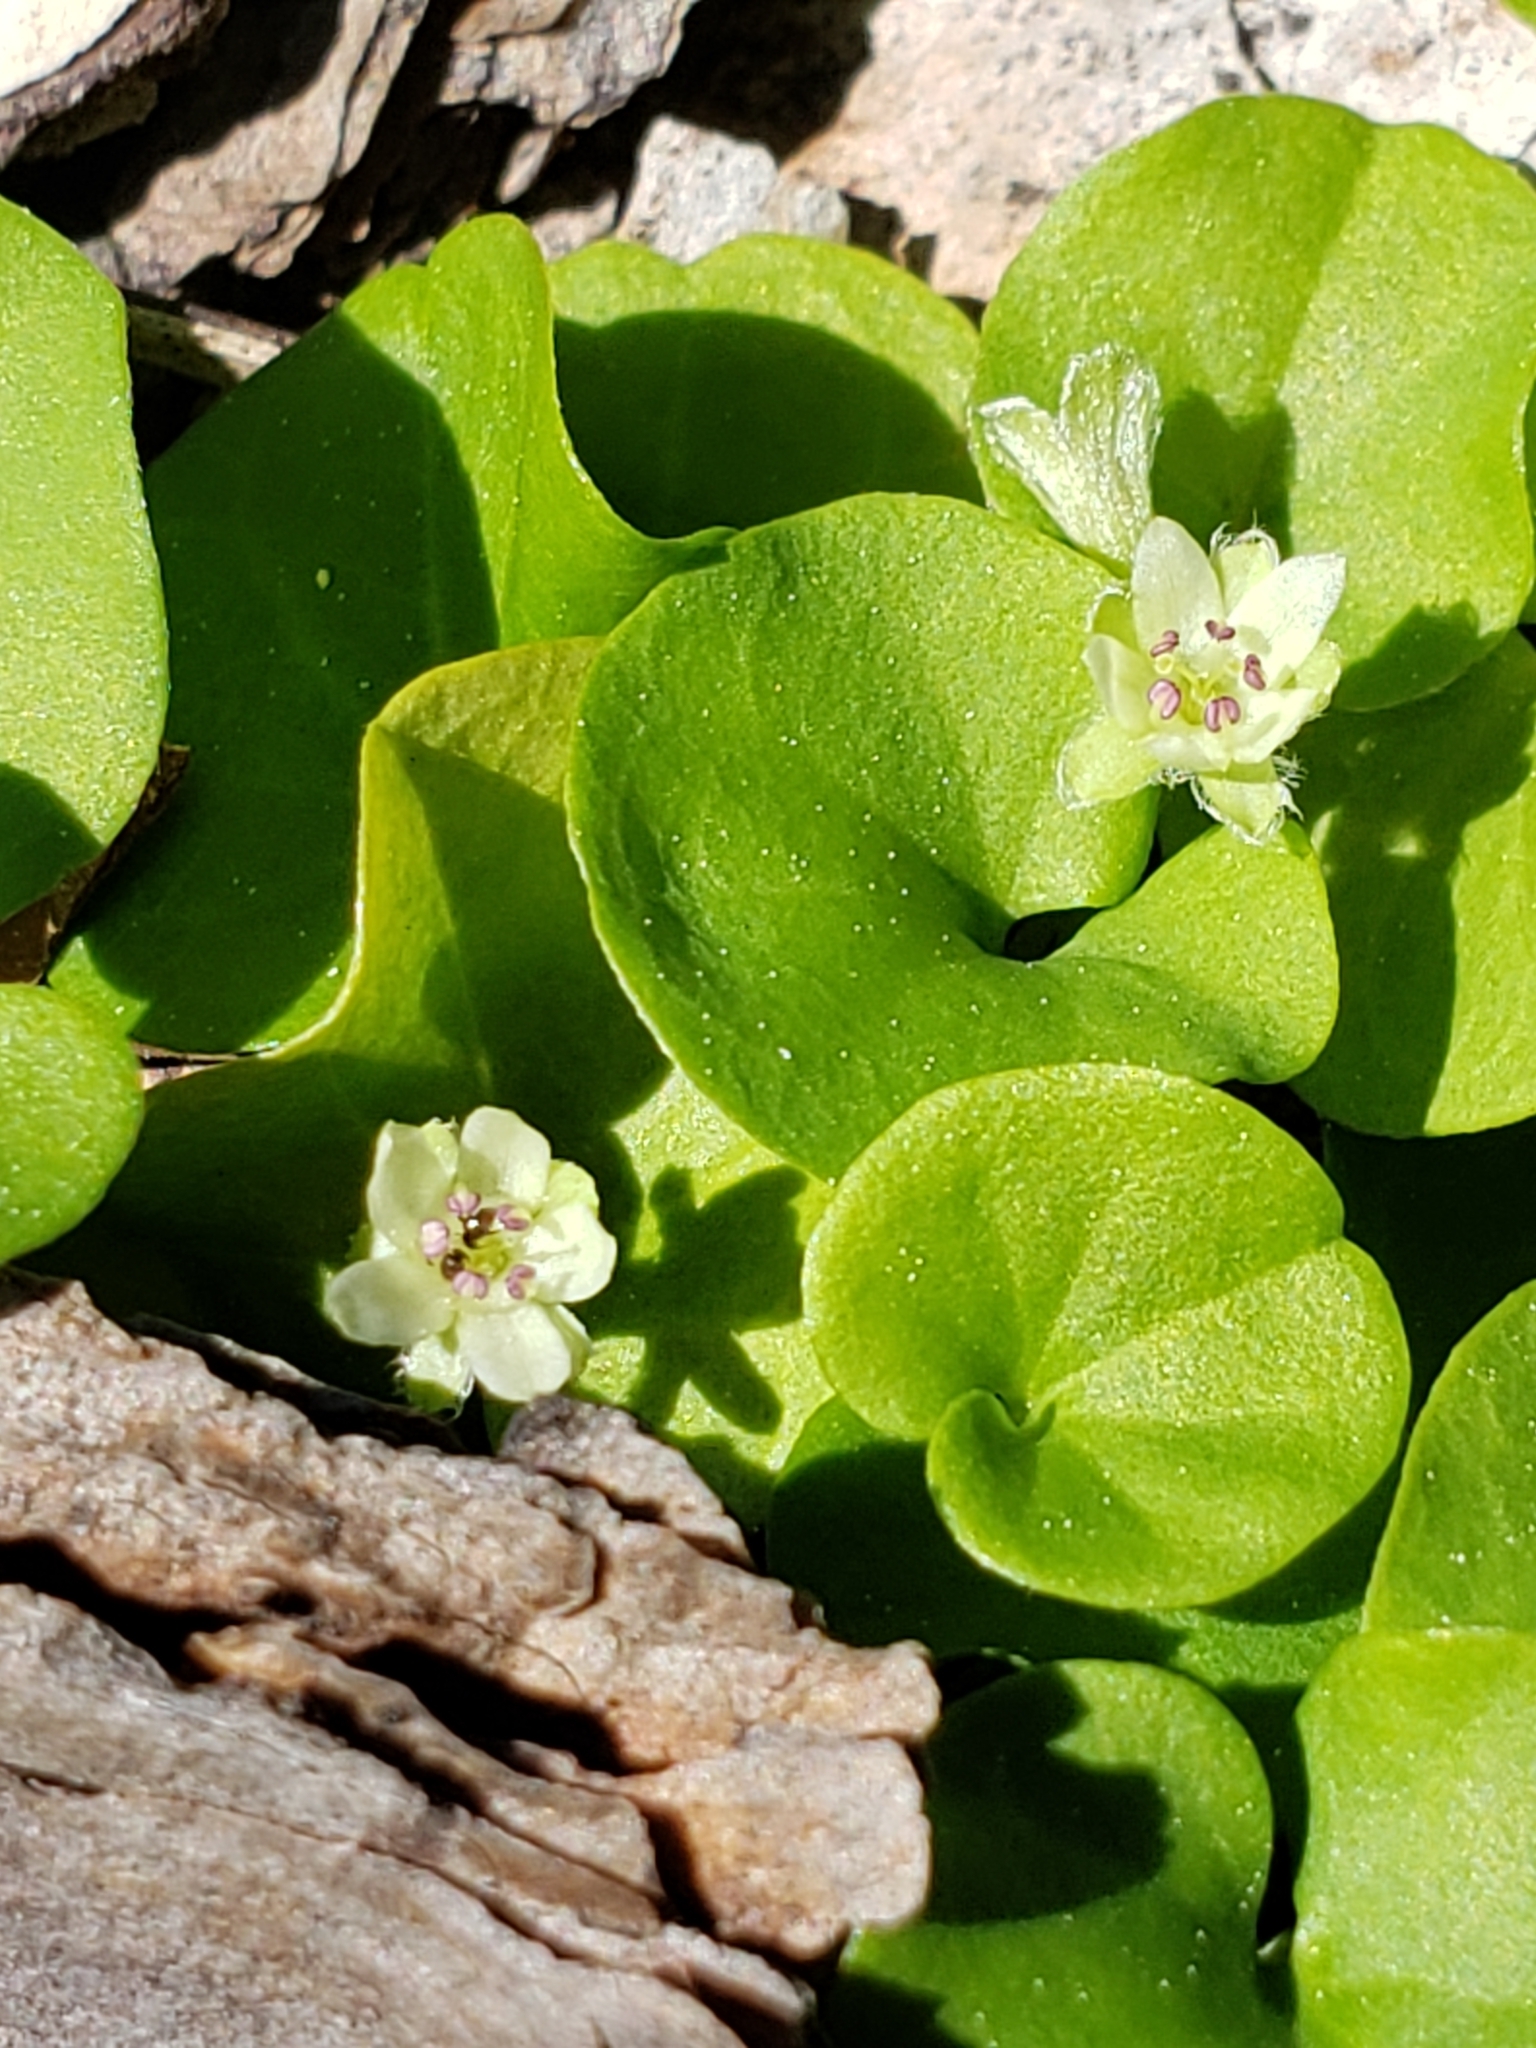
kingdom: Plantae
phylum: Tracheophyta
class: Magnoliopsida
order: Solanales
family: Convolvulaceae
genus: Dichondra
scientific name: Dichondra carolinensis
